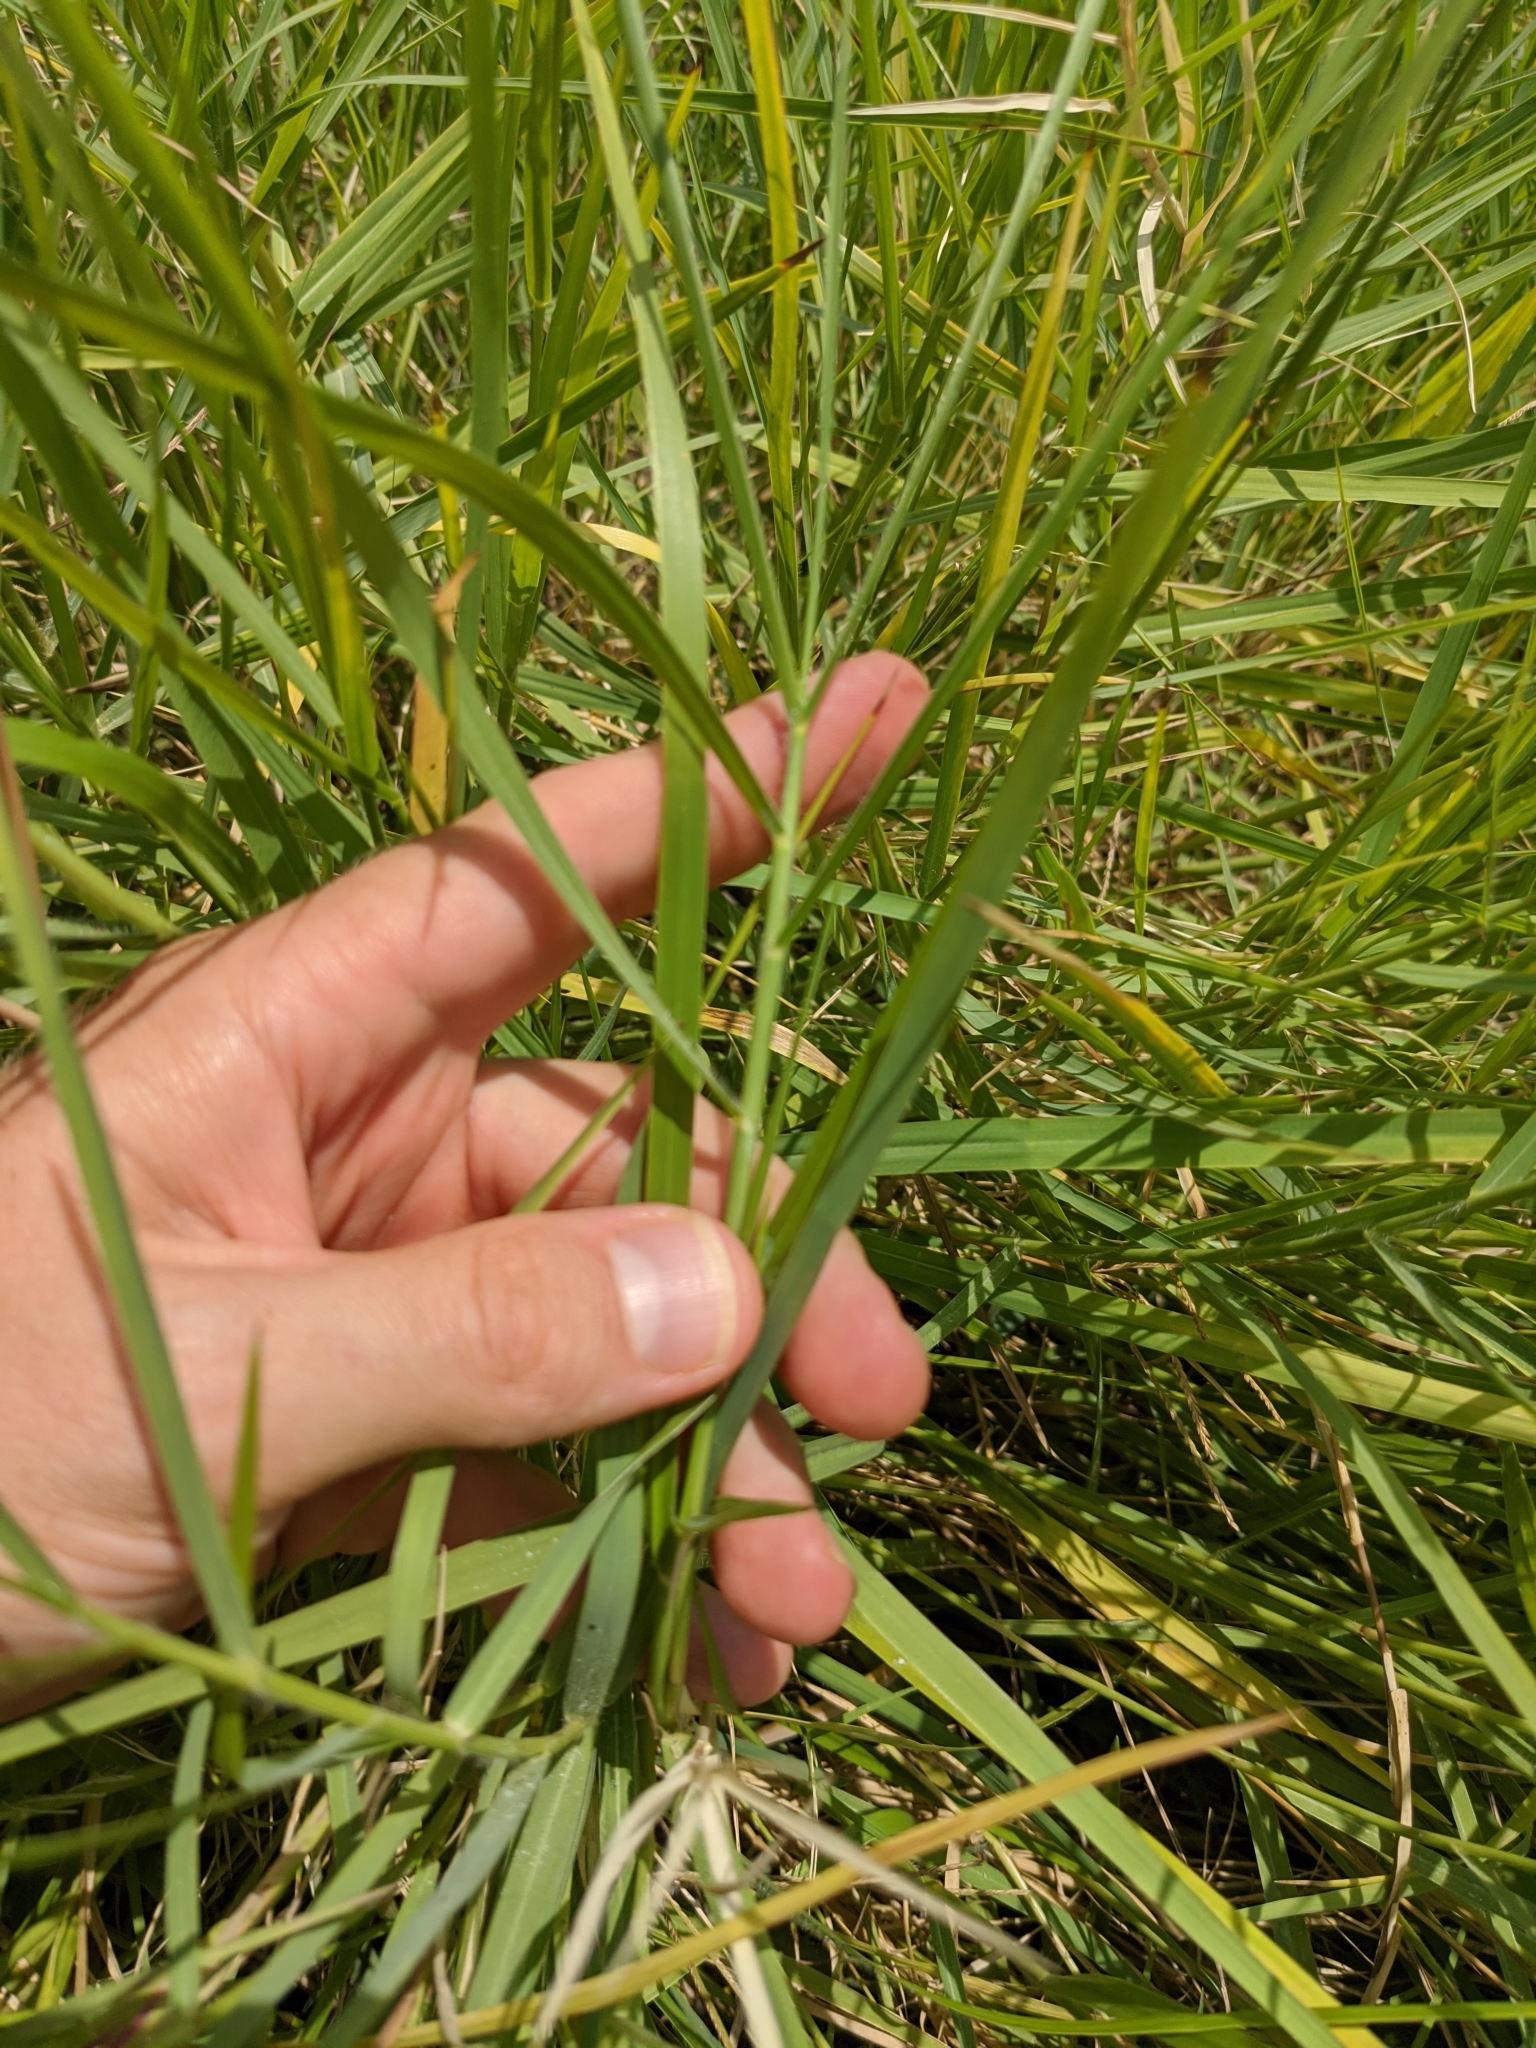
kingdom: Plantae
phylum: Tracheophyta
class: Liliopsida
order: Poales
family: Poaceae
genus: Panicum
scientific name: Panicum repens
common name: Torpedo grass
